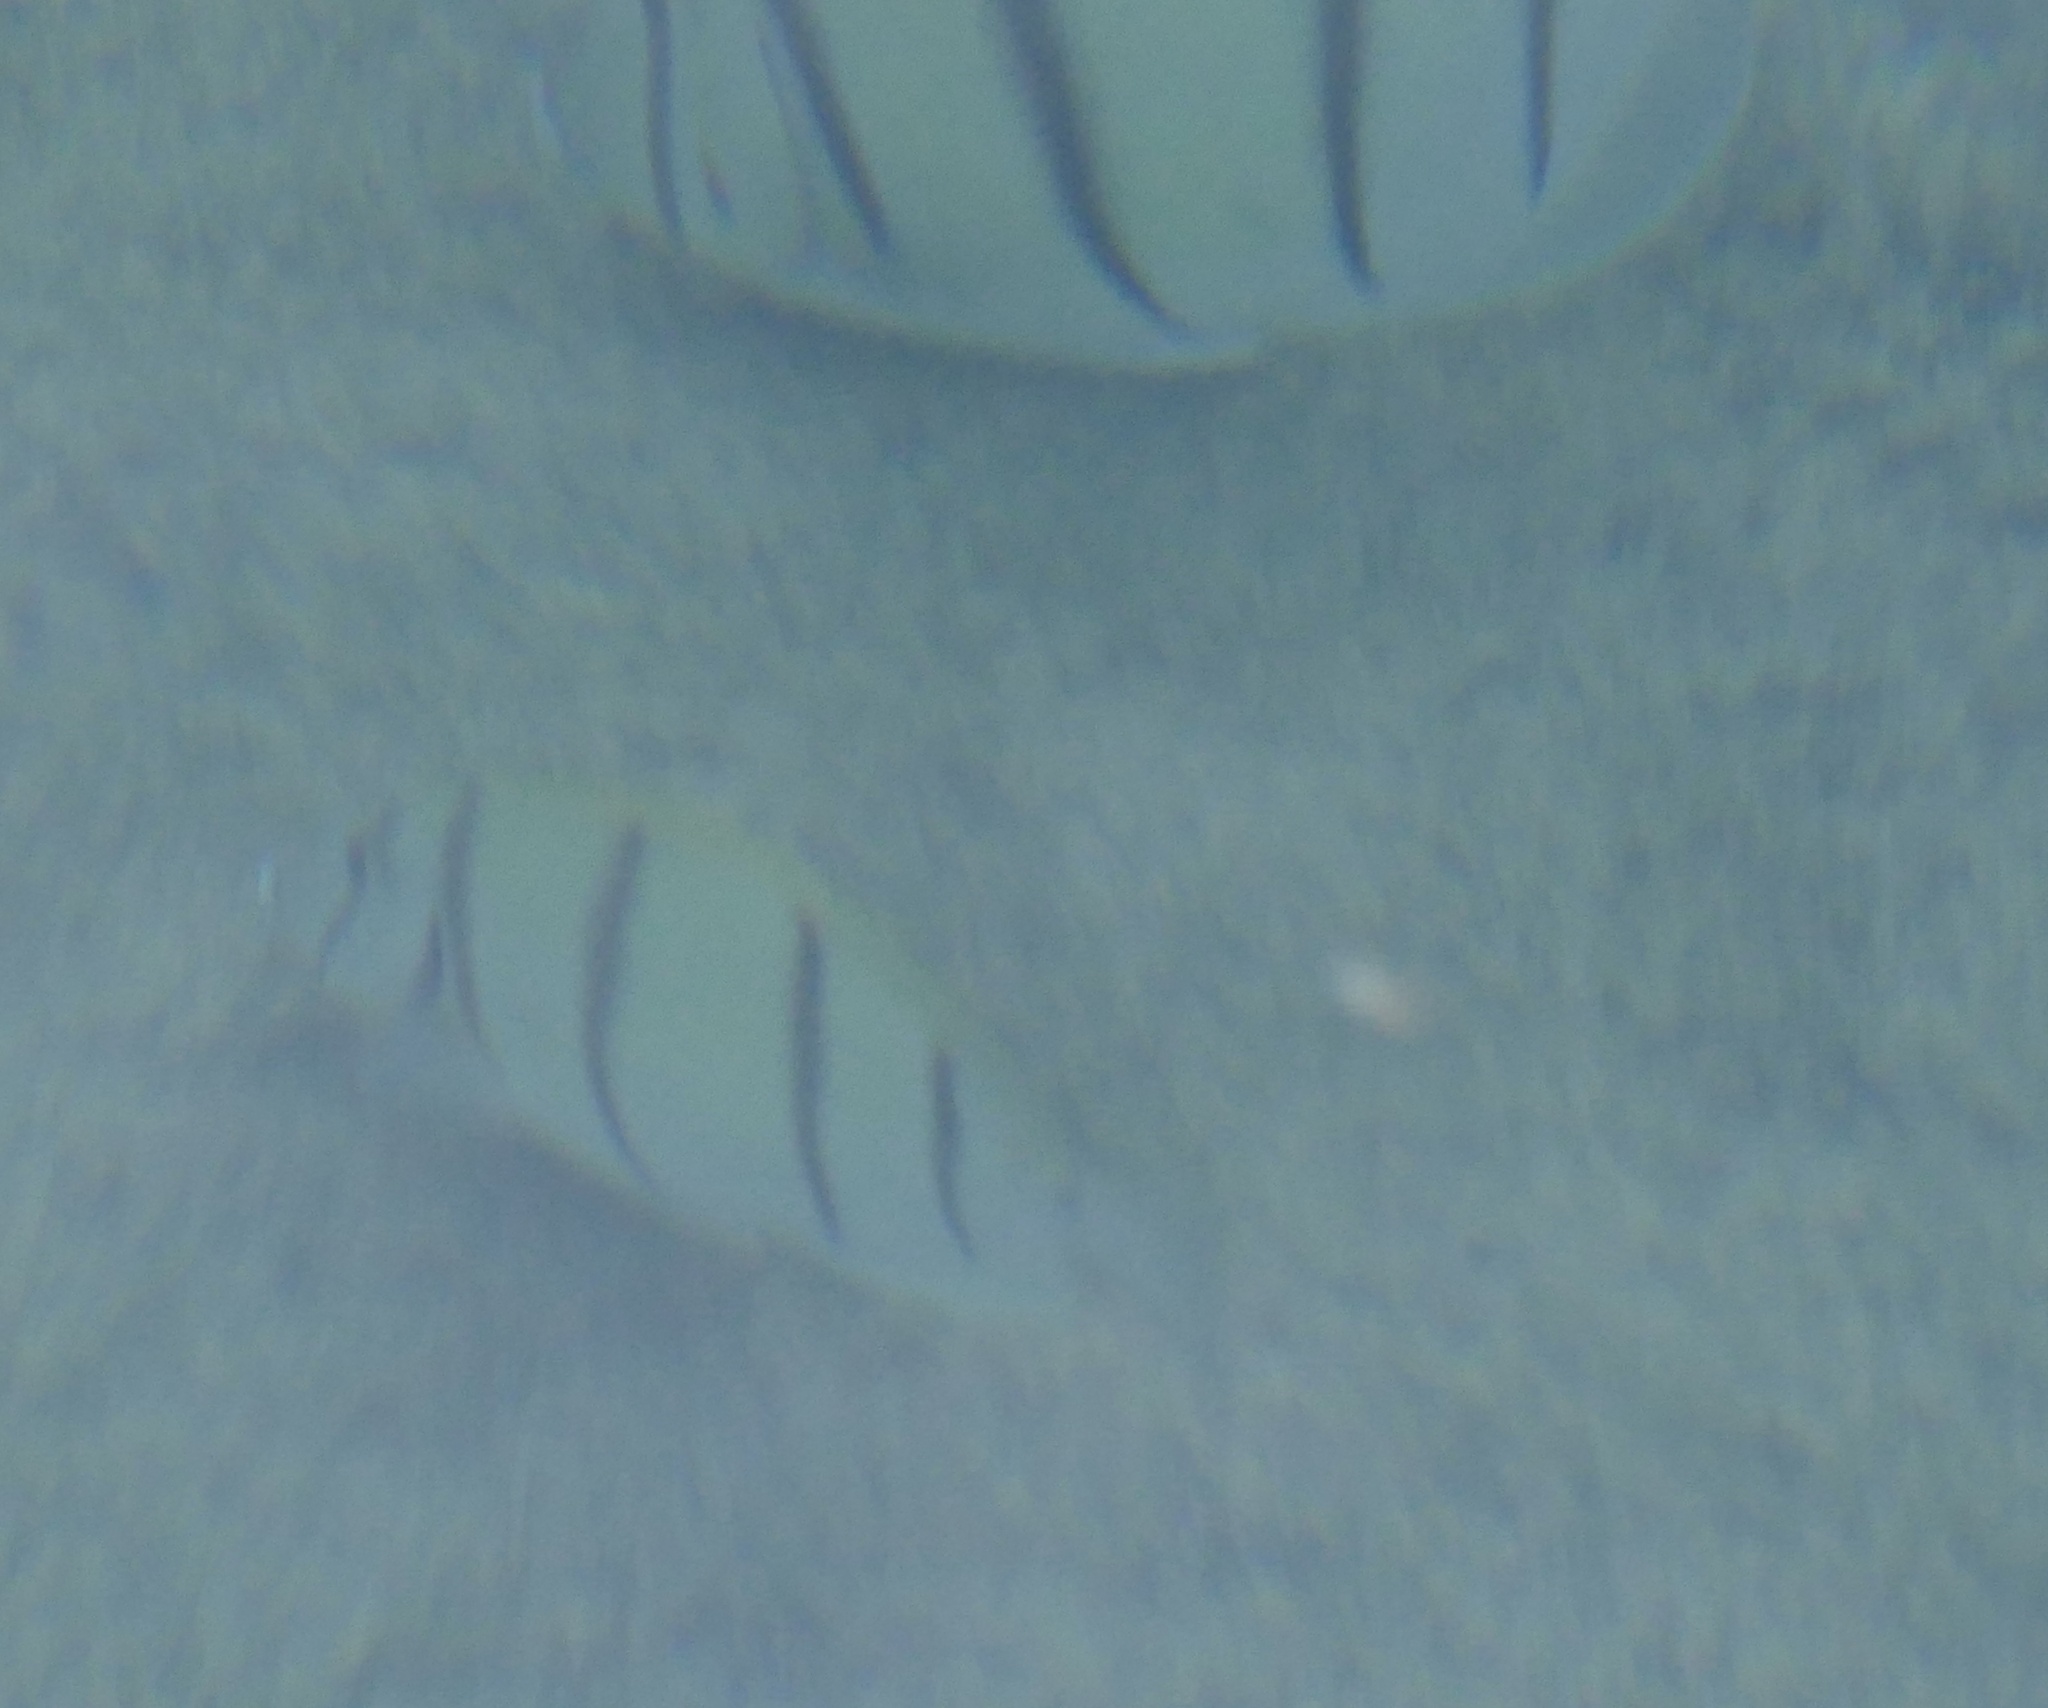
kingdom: Animalia
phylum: Chordata
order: Perciformes
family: Acanthuridae
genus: Acanthurus
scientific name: Acanthurus triostegus
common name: Convict surgeonfish
